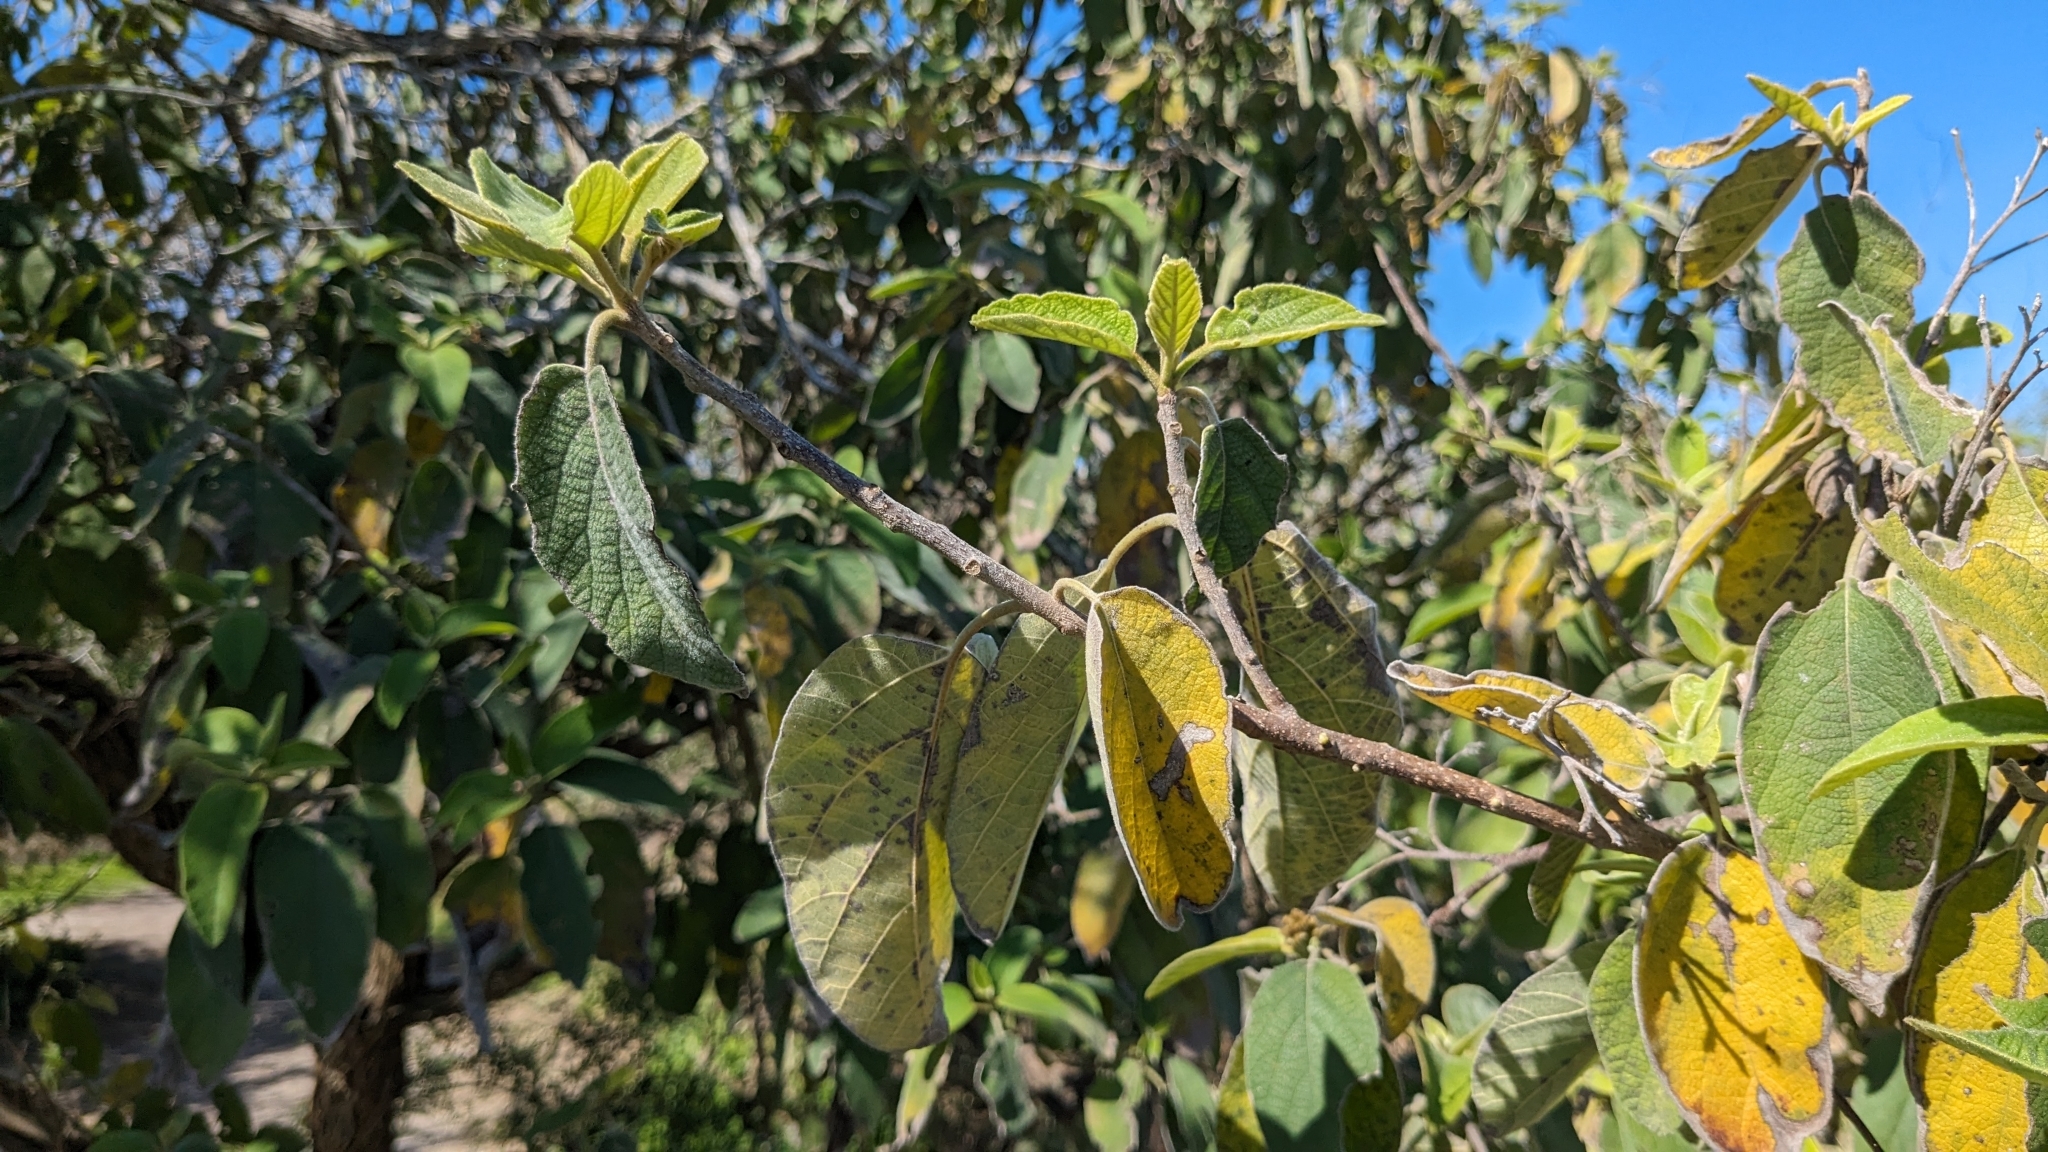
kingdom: Plantae
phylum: Tracheophyta
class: Magnoliopsida
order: Boraginales
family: Cordiaceae
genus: Cordia
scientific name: Cordia boissieri
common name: Mexican-olive
